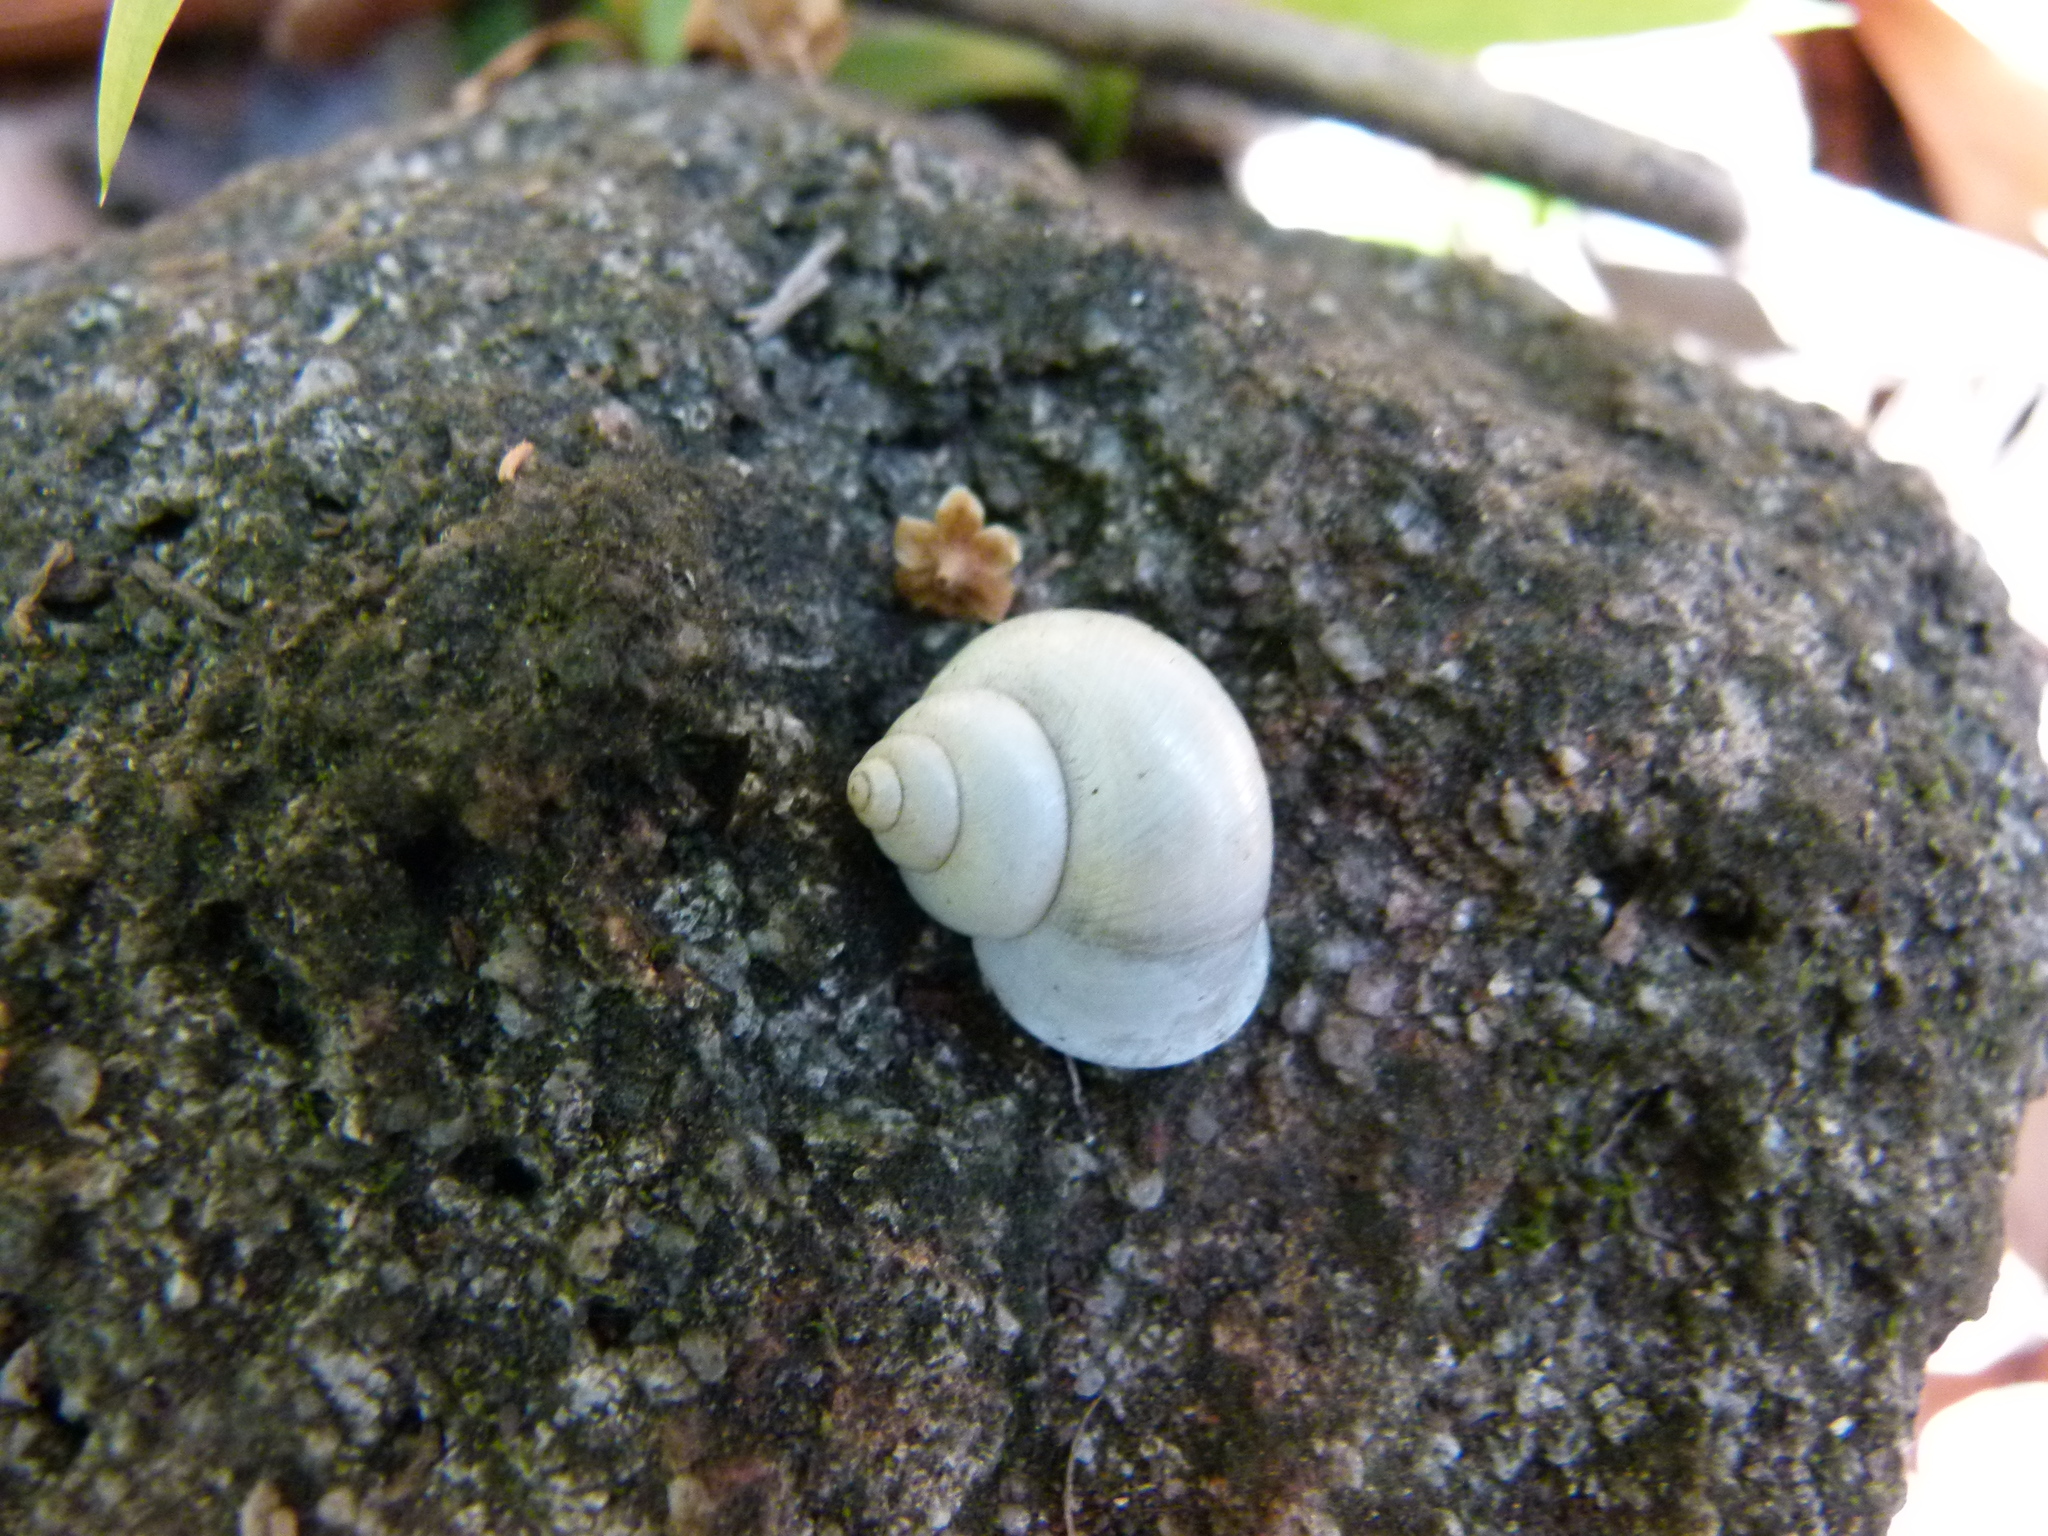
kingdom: Animalia
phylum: Mollusca
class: Gastropoda
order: Architaenioglossa
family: Cyclophoridae
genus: Leptopoma
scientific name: Leptopoma perlucidum
